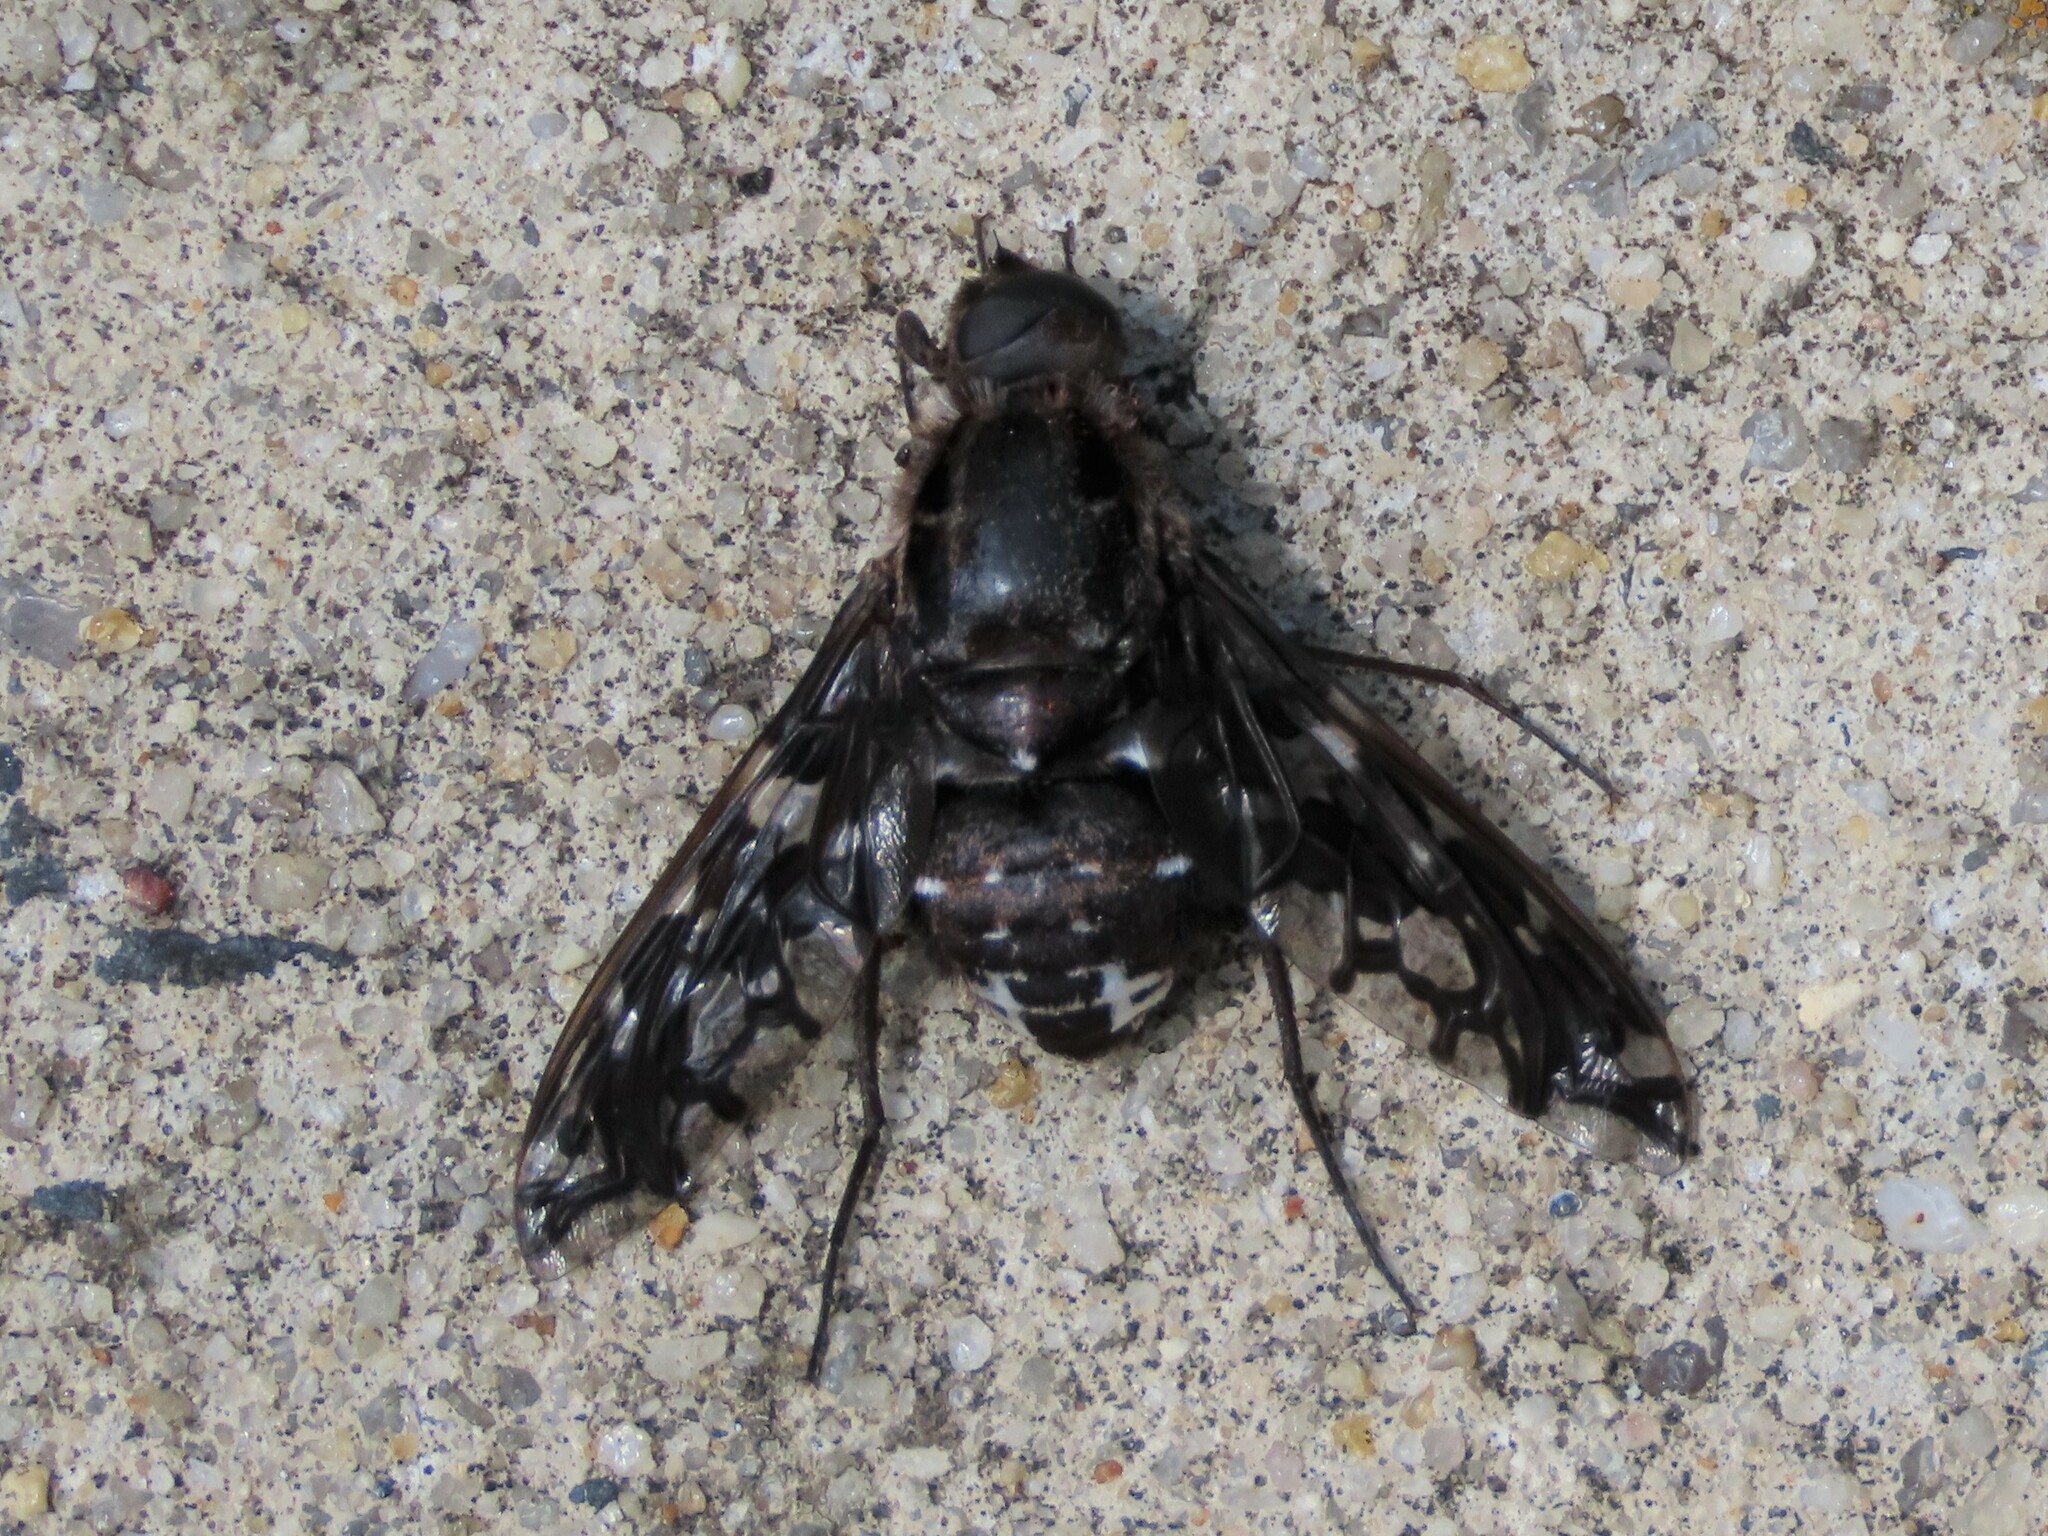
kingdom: Animalia
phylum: Arthropoda
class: Insecta
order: Diptera
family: Bombyliidae
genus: Xenox
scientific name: Xenox tigrinus
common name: Tiger bee fly
